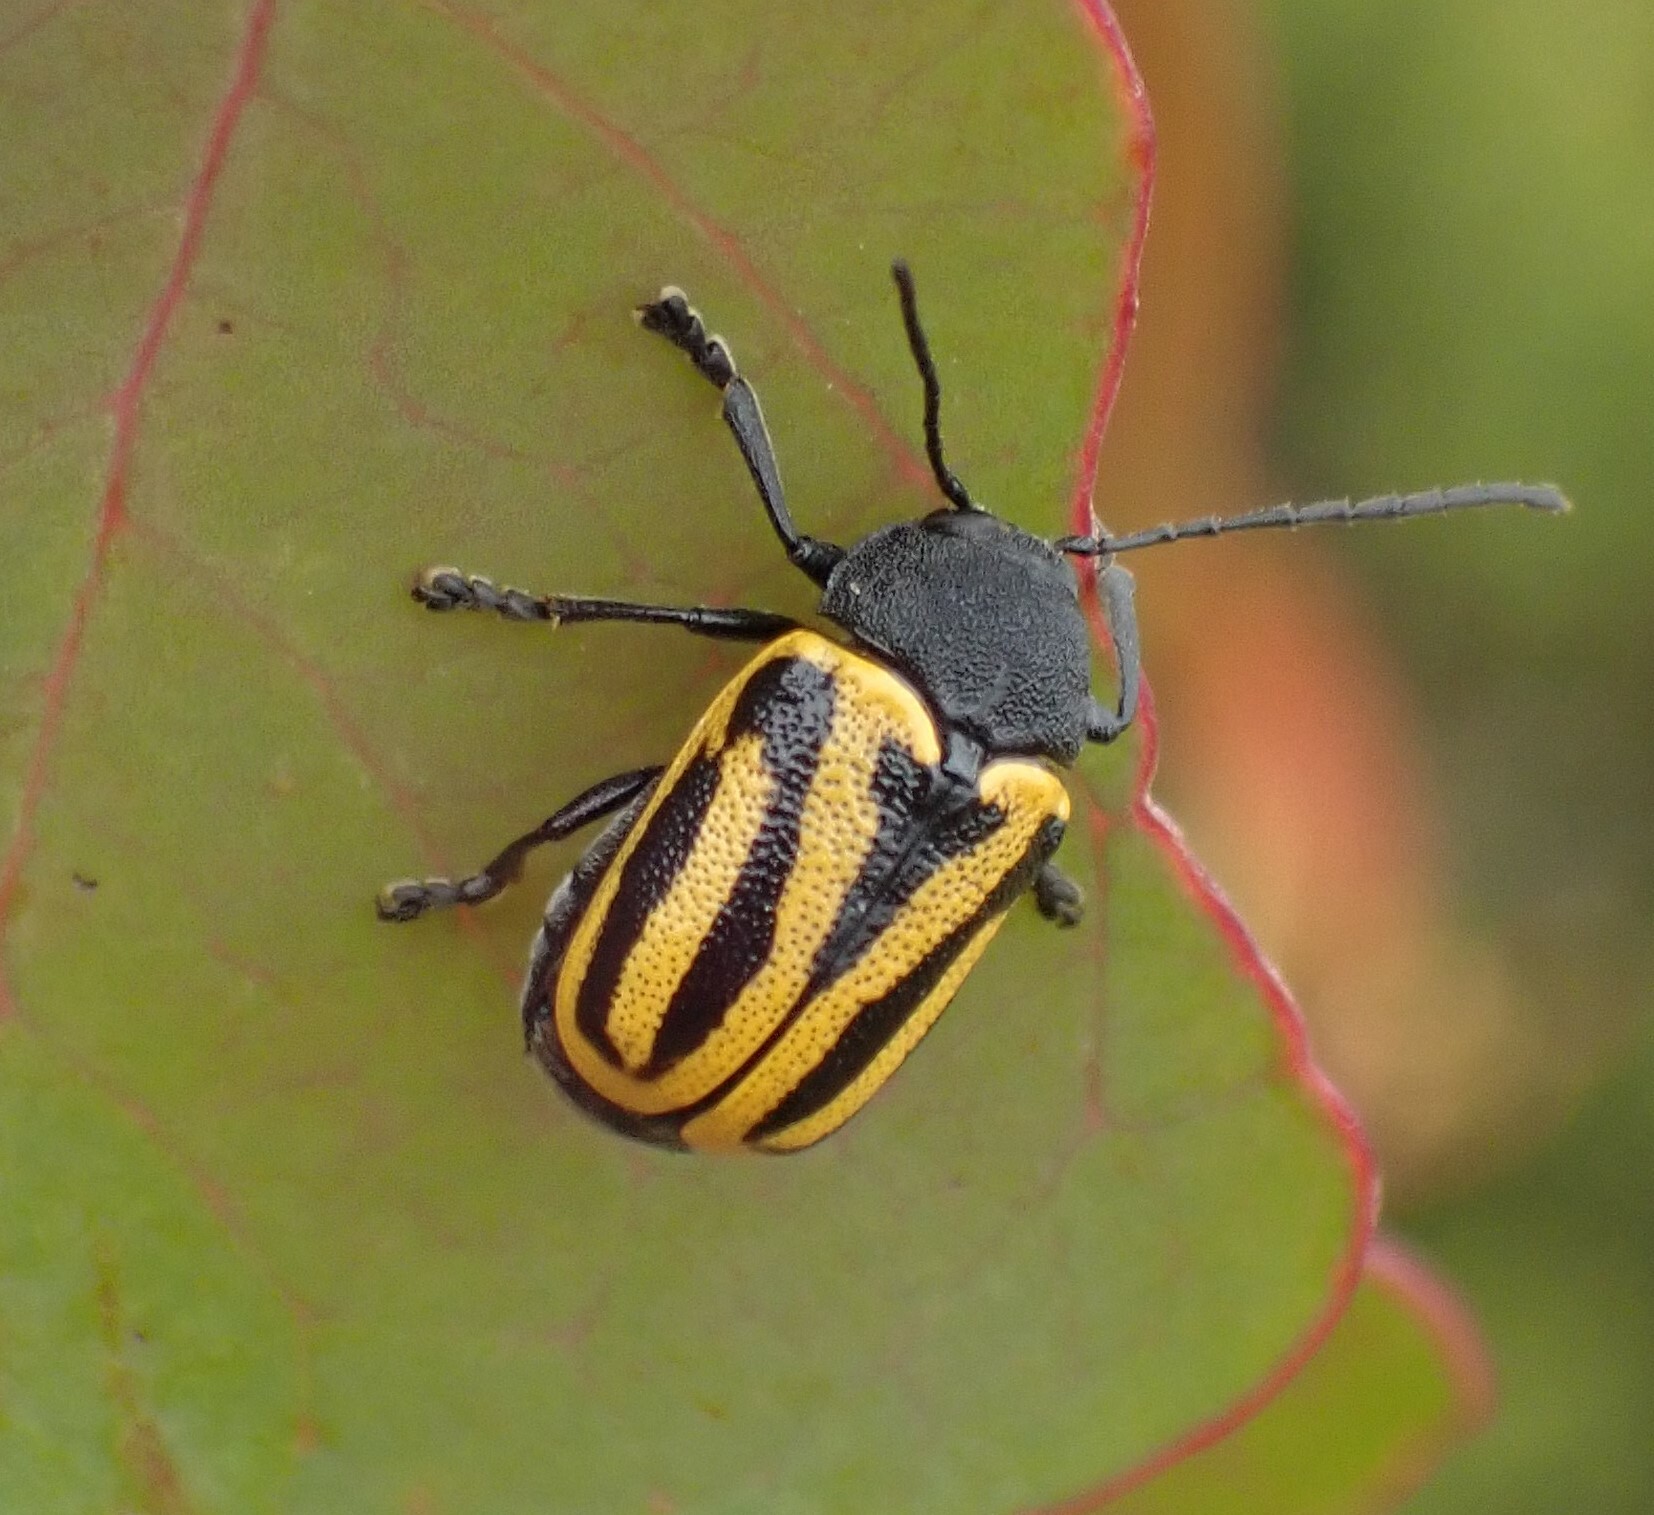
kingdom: Animalia
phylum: Arthropoda
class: Insecta
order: Coleoptera
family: Chrysomelidae
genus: Cadmus
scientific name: Cadmus
